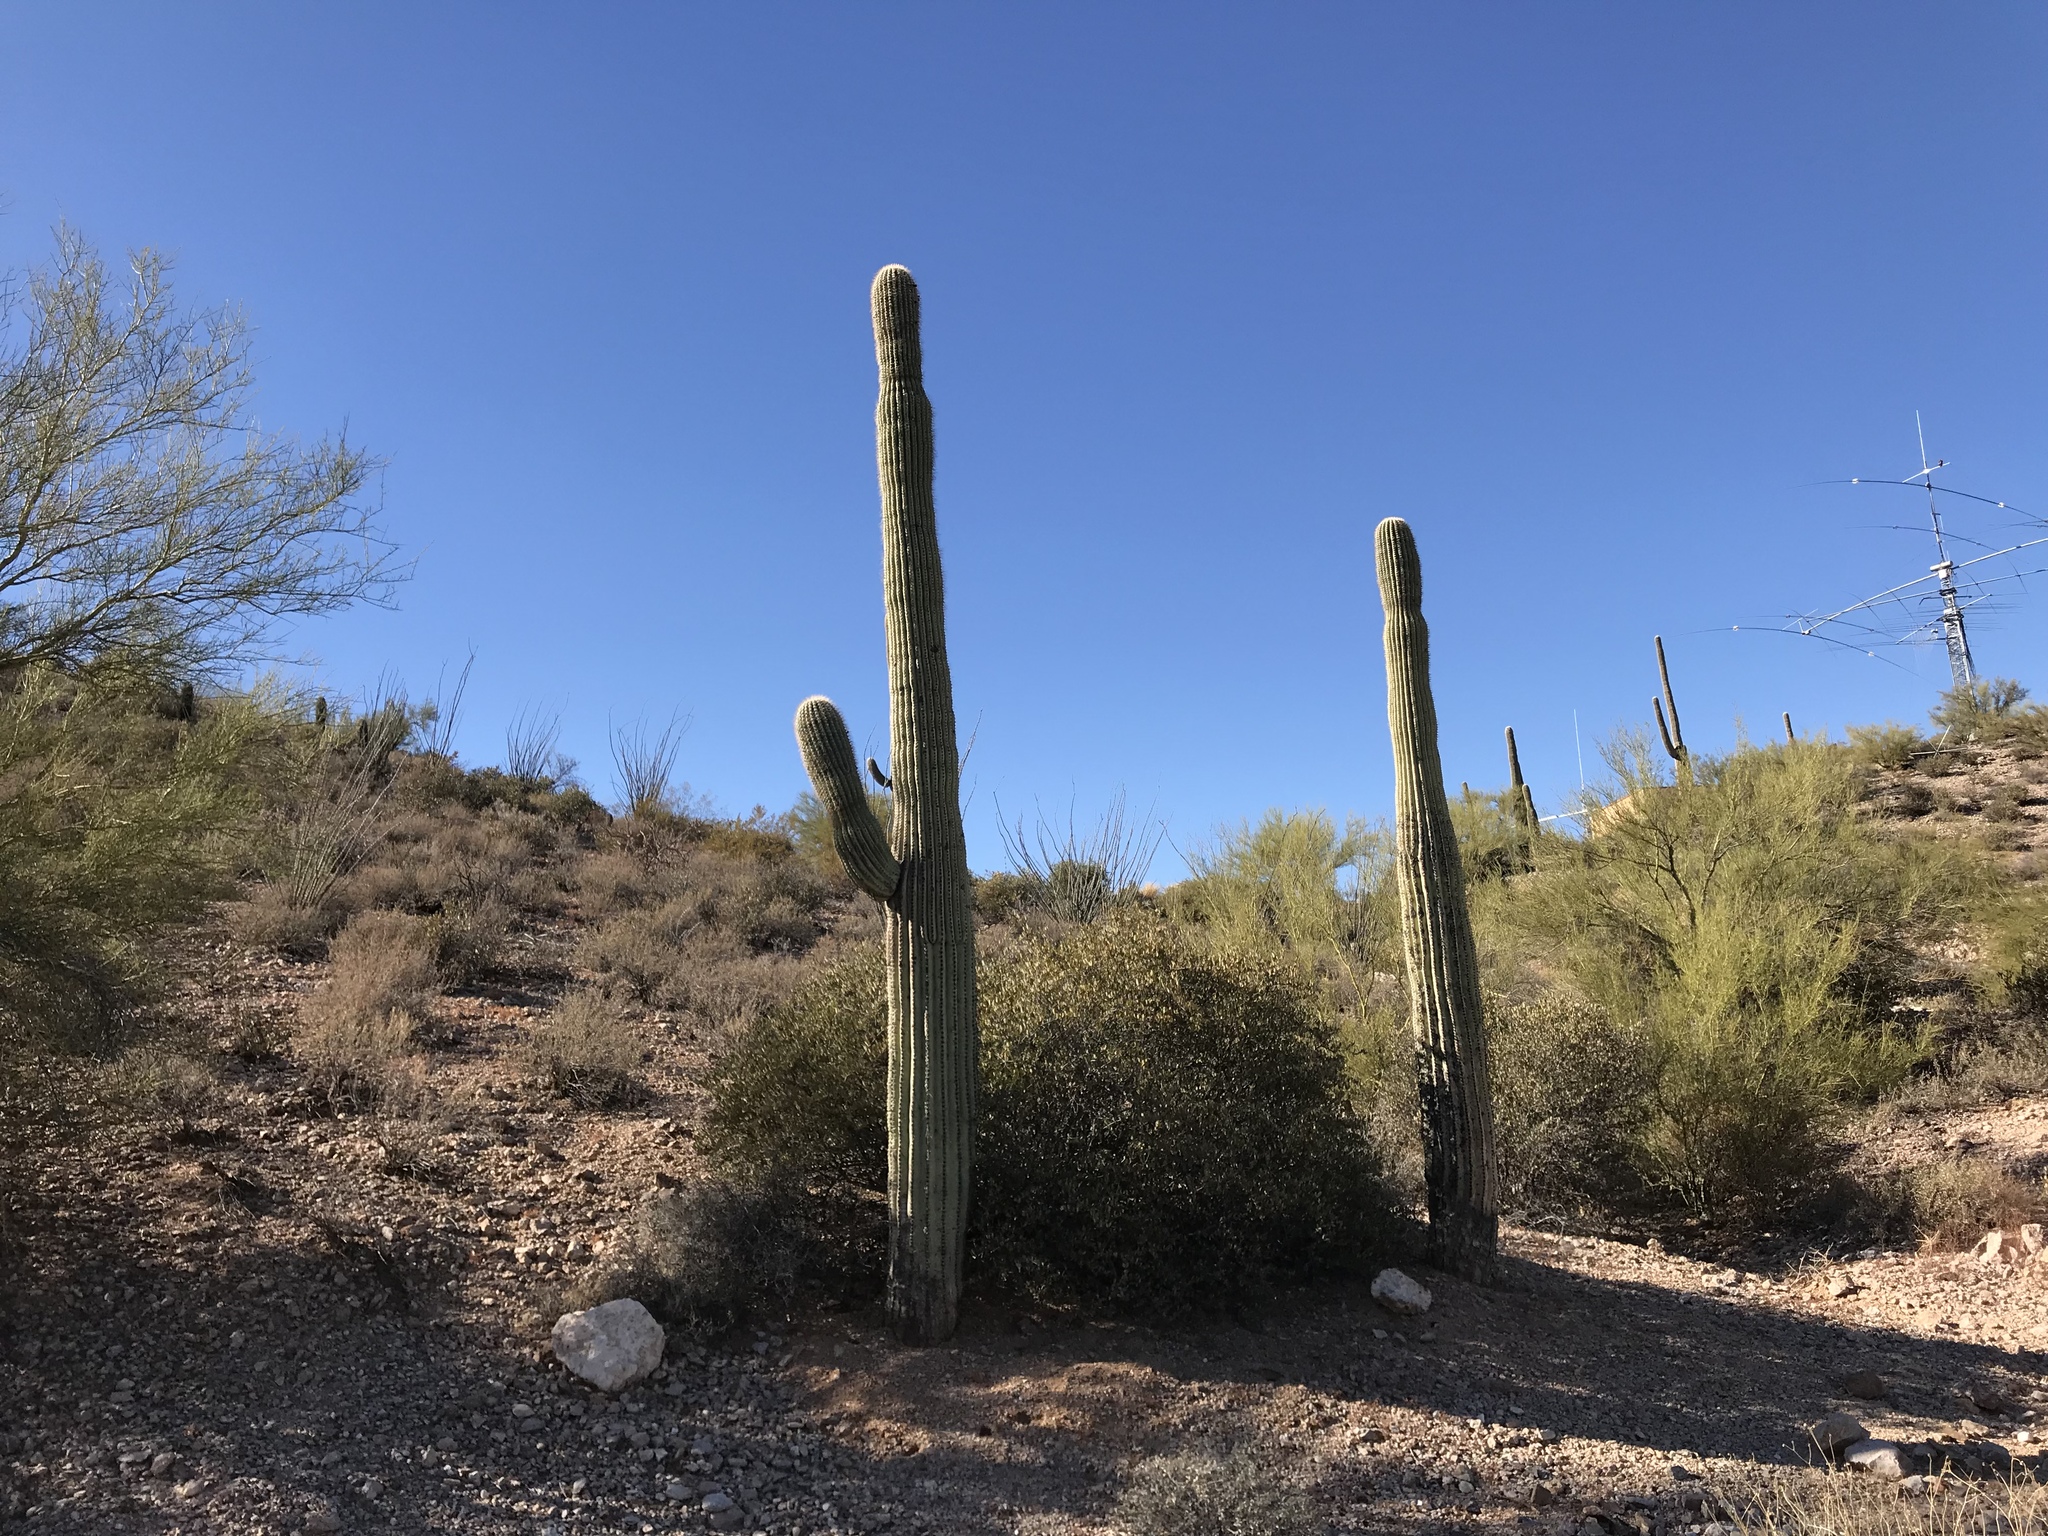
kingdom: Plantae
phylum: Tracheophyta
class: Magnoliopsida
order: Caryophyllales
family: Cactaceae
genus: Carnegiea
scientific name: Carnegiea gigantea
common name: Saguaro
